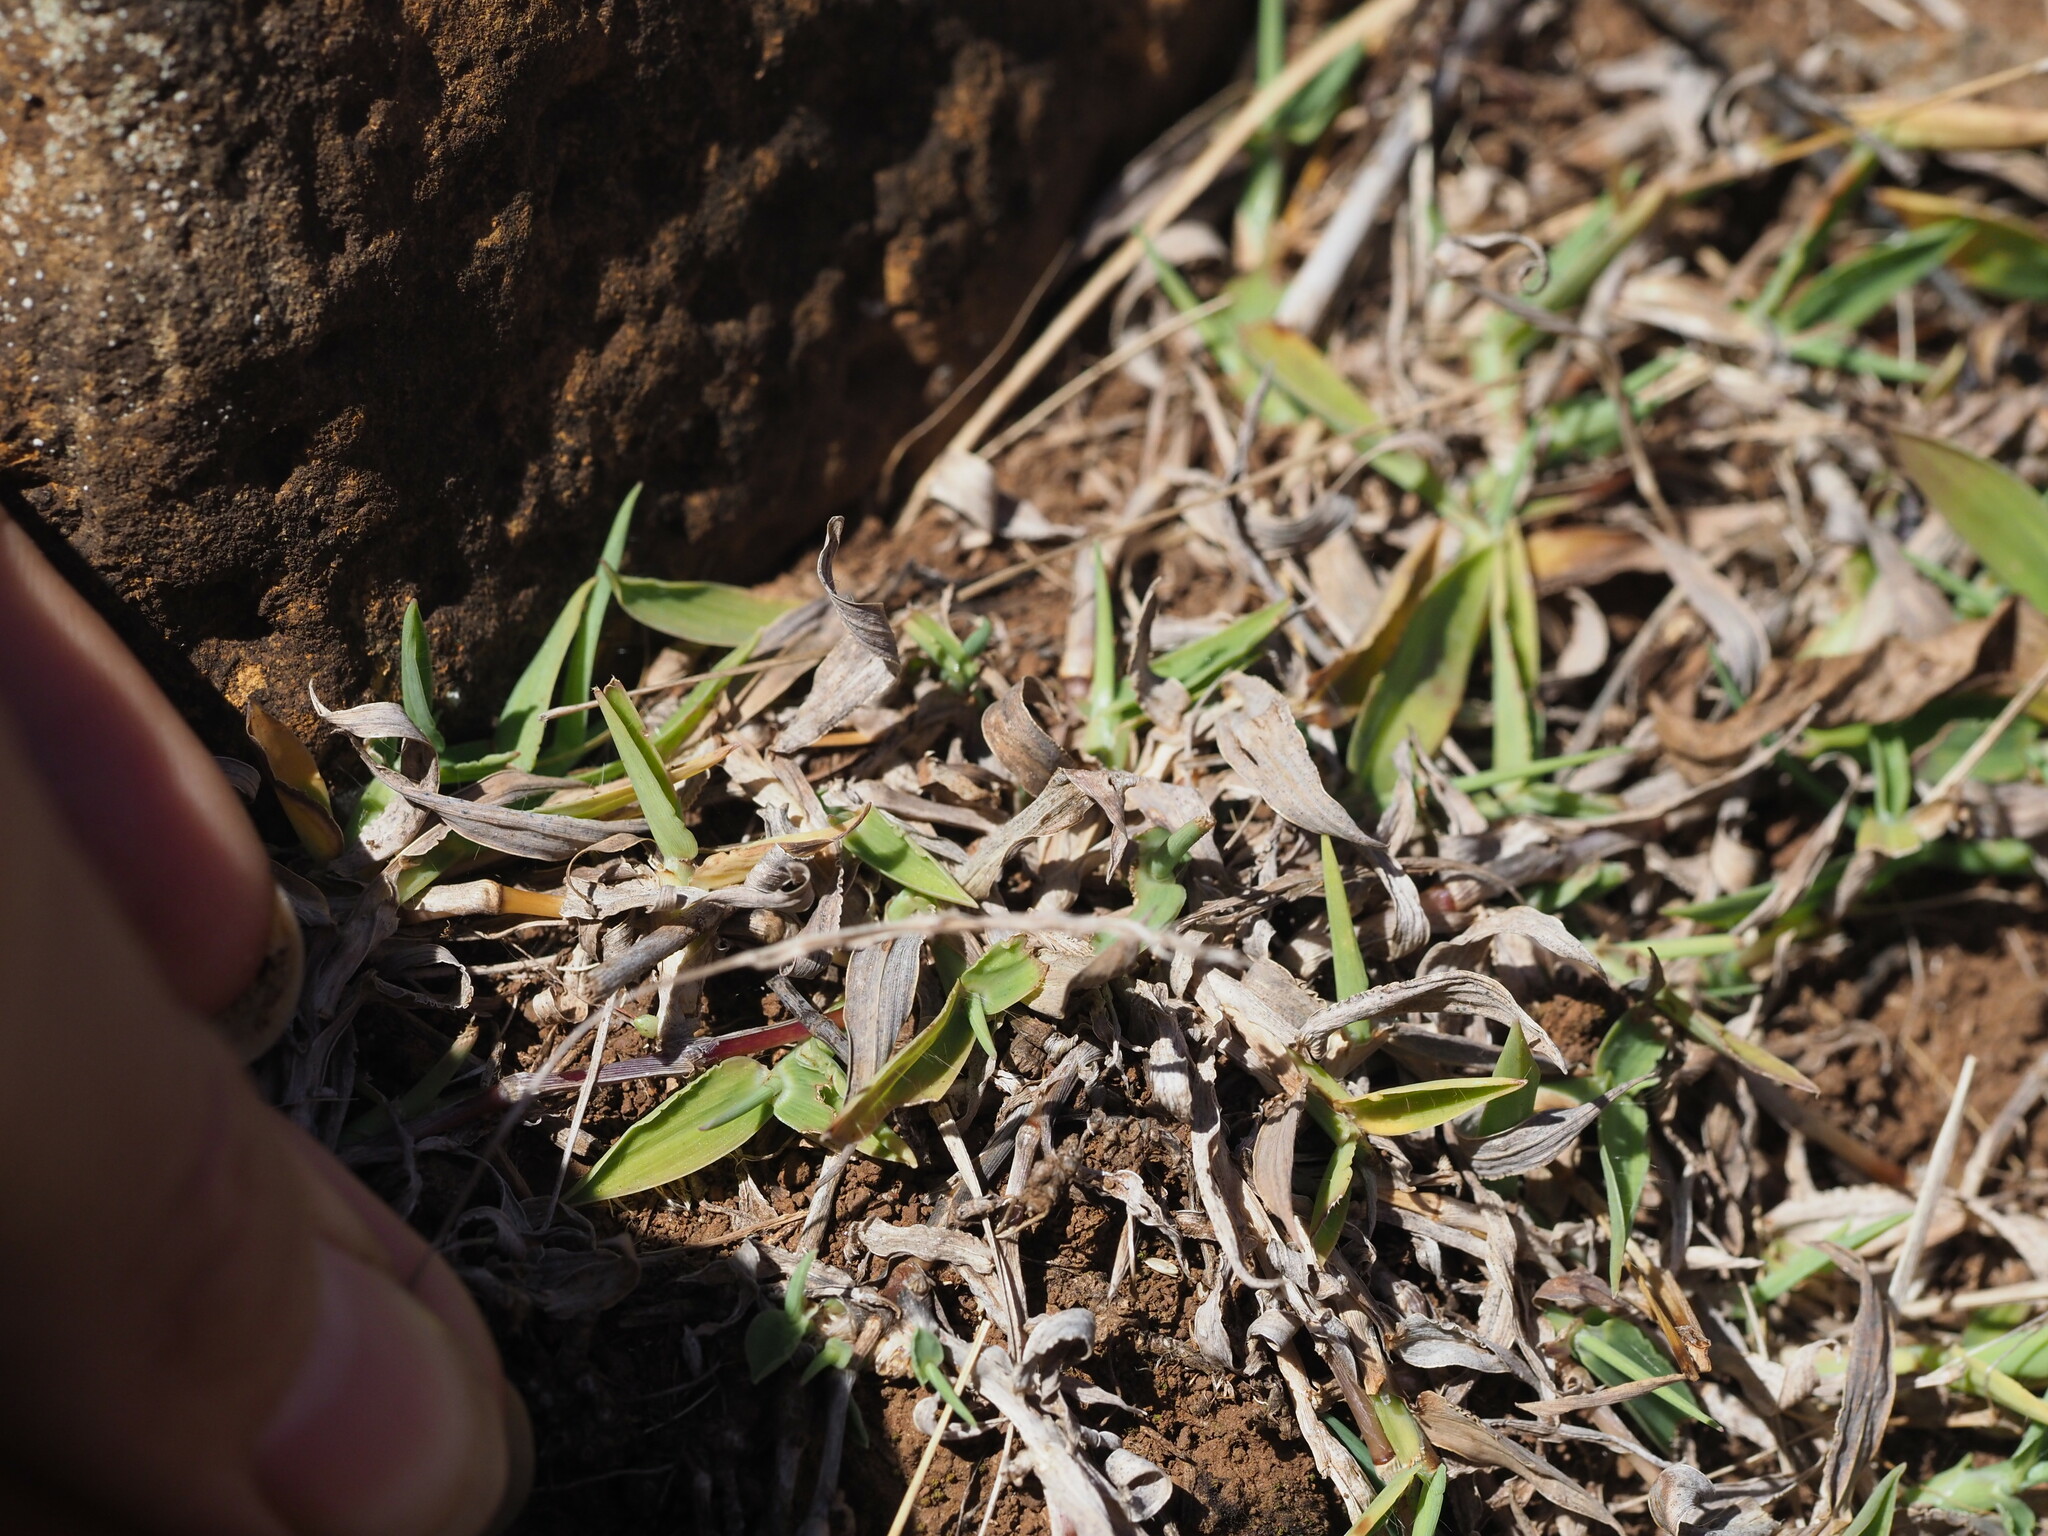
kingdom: Plantae
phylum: Tracheophyta
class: Liliopsida
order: Poales
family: Poaceae
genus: Digitaria
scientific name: Digitaria ciliaris
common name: Tropical finger-grass
